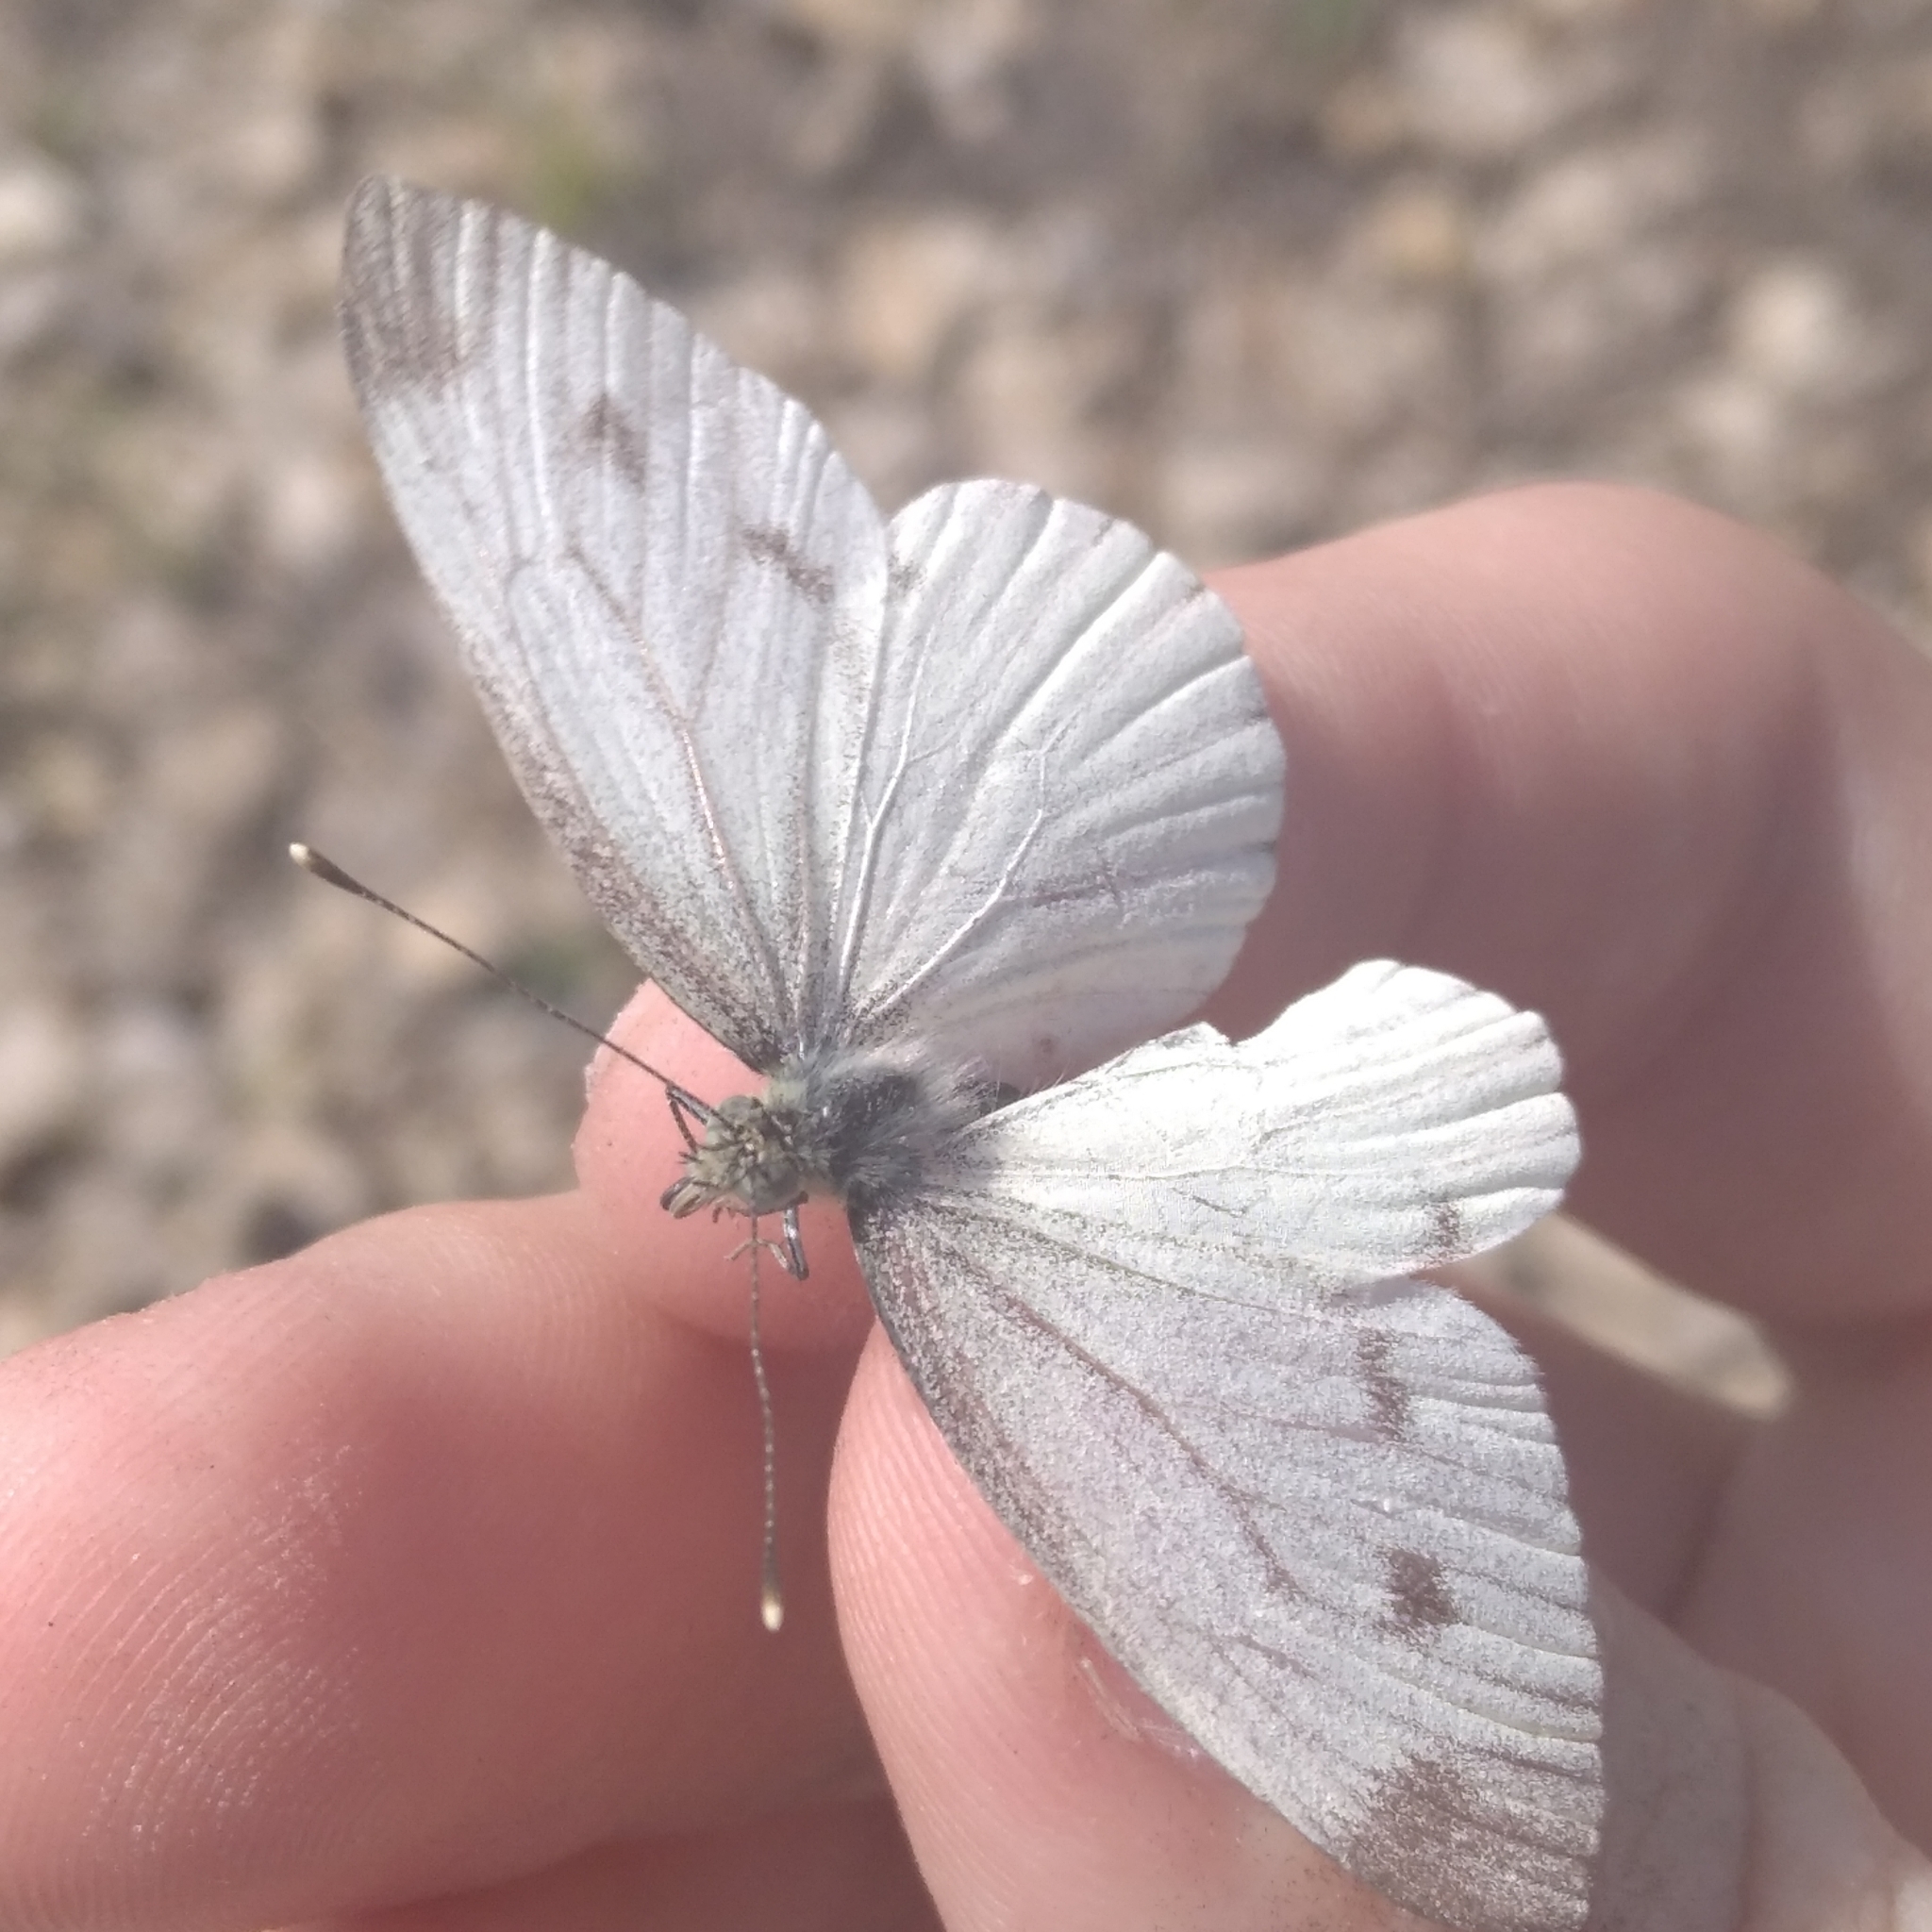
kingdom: Animalia
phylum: Arthropoda
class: Insecta
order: Lepidoptera
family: Pieridae
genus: Pieris
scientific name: Pieris napi
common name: Green-veined white
